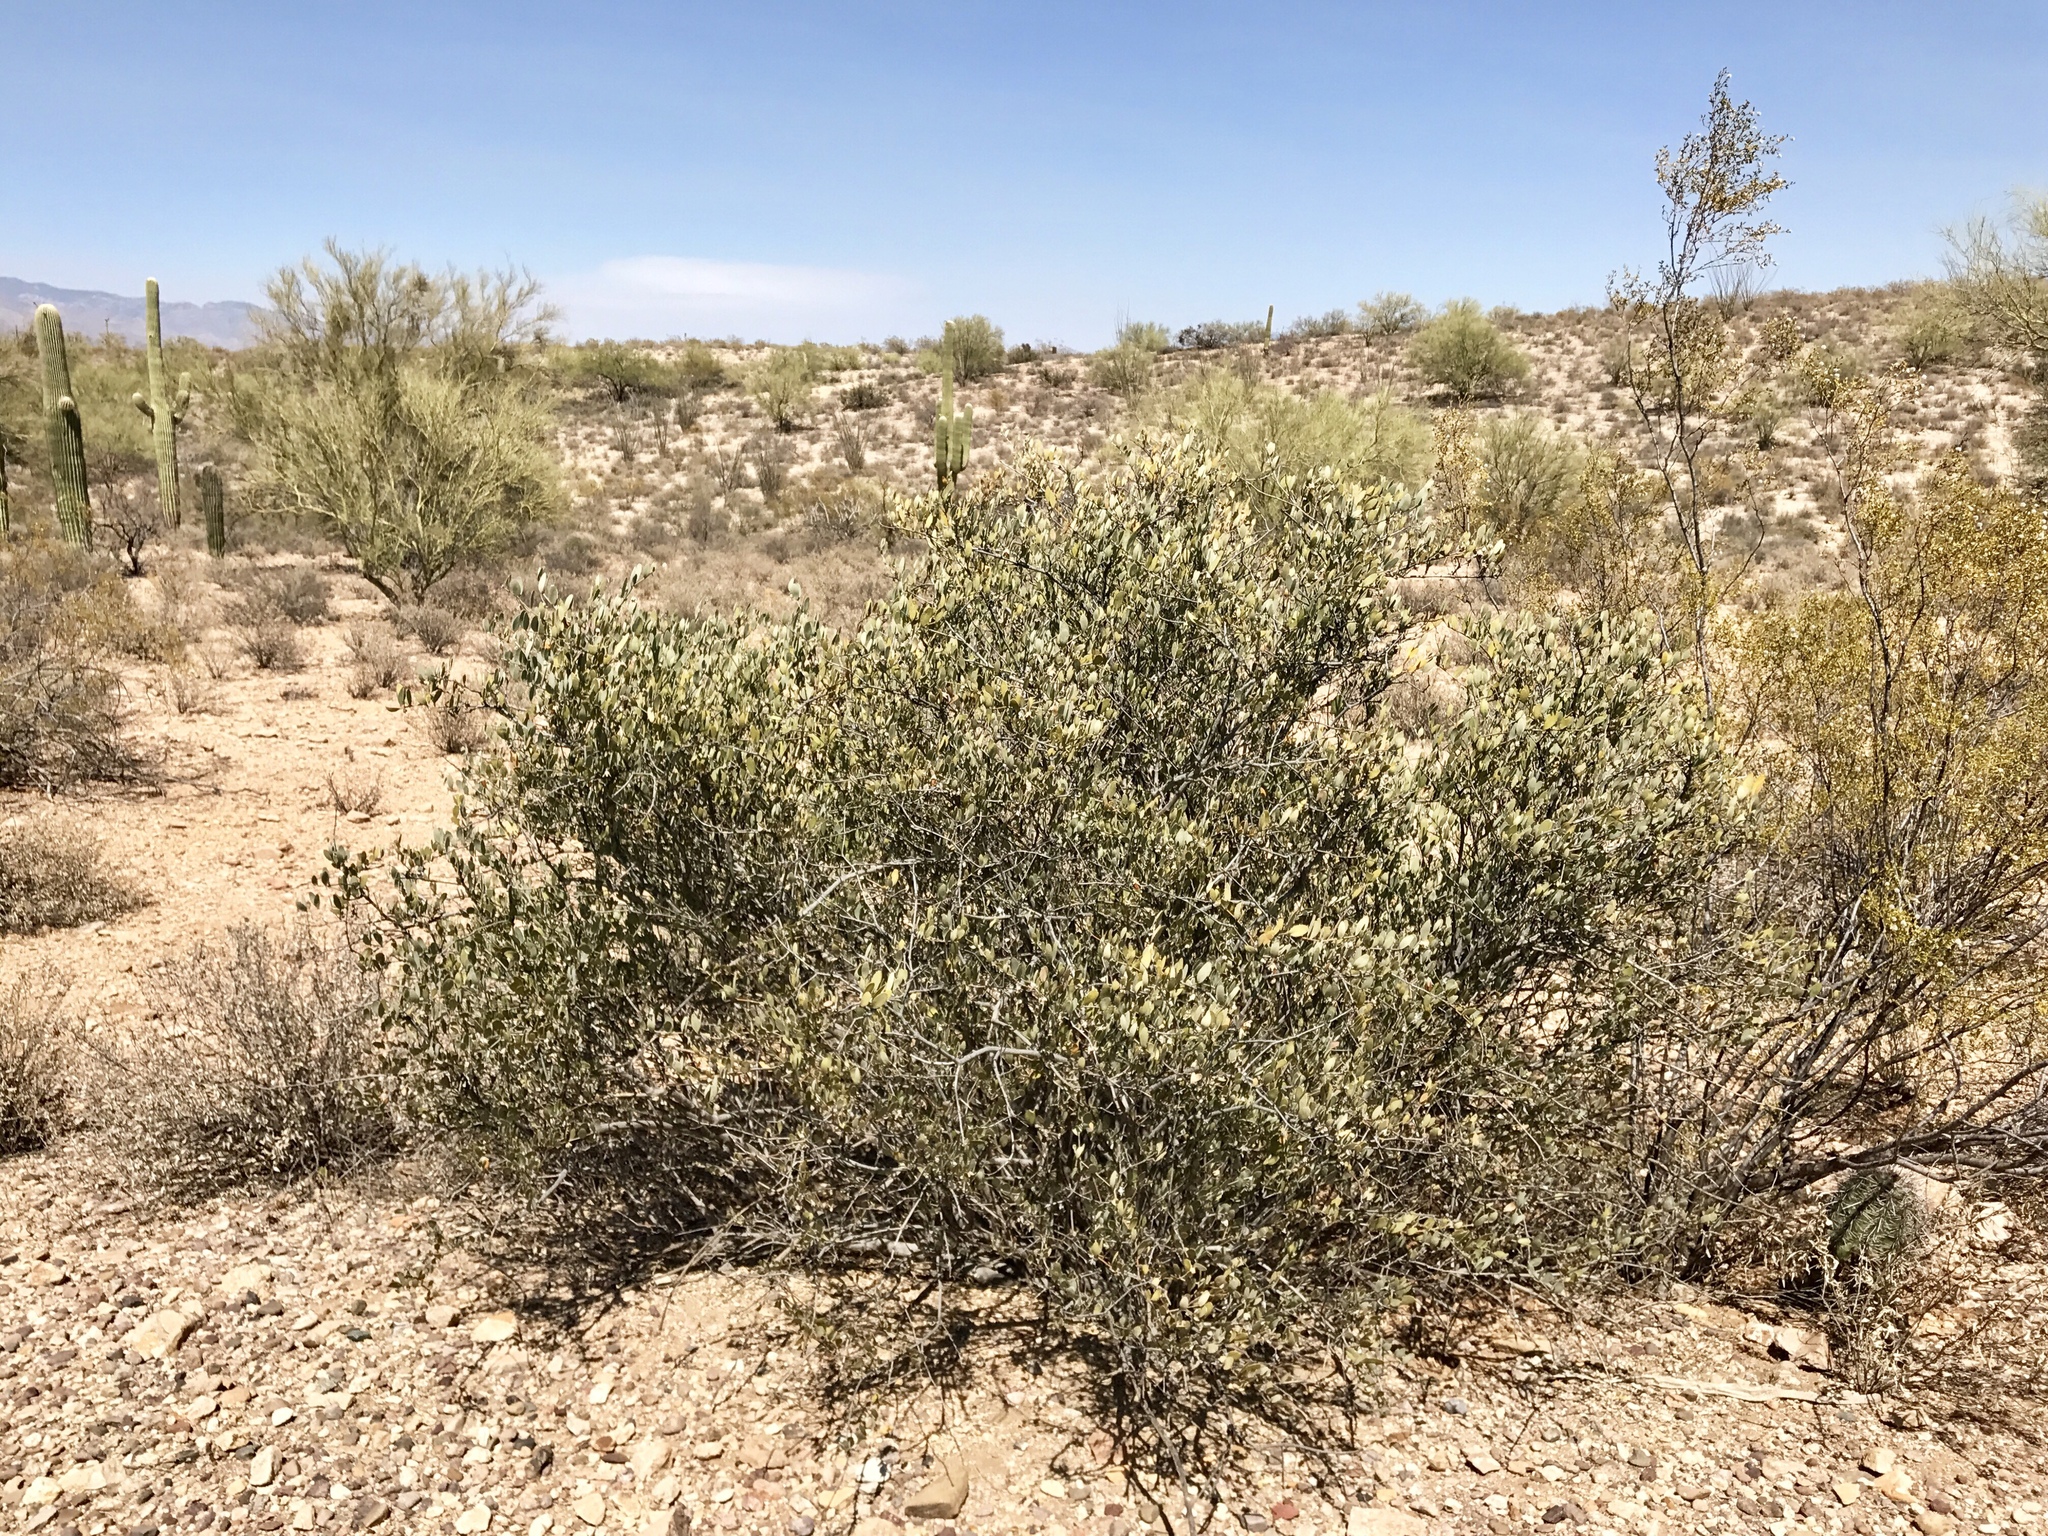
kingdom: Plantae
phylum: Tracheophyta
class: Magnoliopsida
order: Caryophyllales
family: Simmondsiaceae
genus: Simmondsia
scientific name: Simmondsia chinensis
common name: Jojoba
